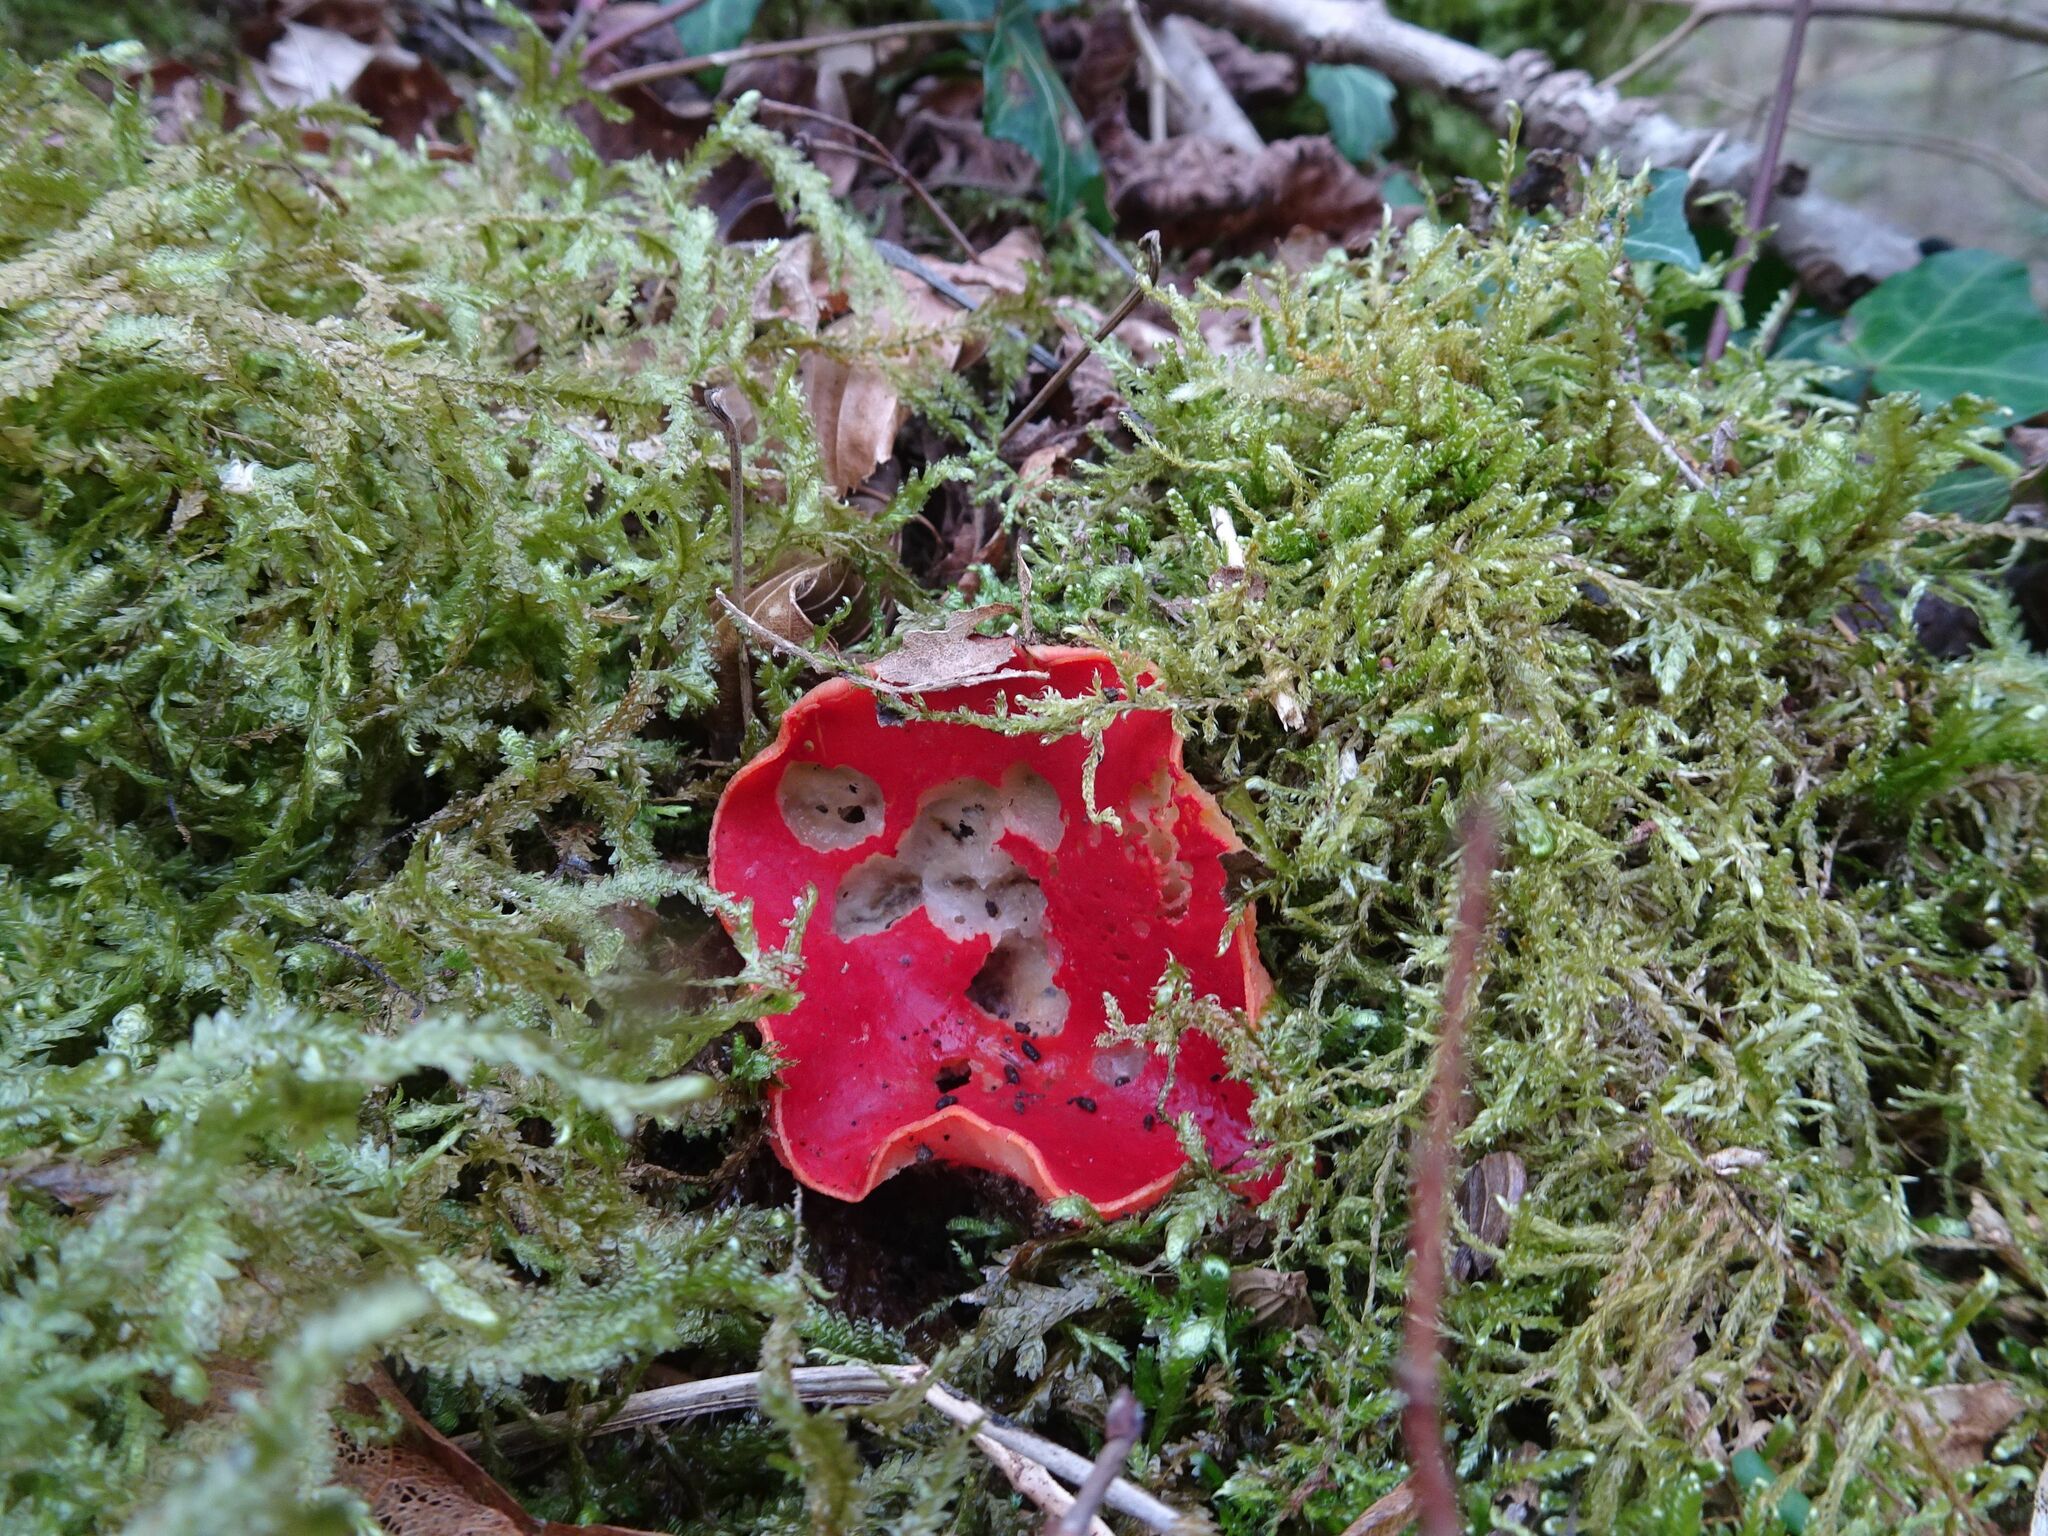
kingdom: Fungi
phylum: Ascomycota
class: Pezizomycetes
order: Pezizales
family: Sarcoscyphaceae
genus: Sarcoscypha
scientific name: Sarcoscypha
